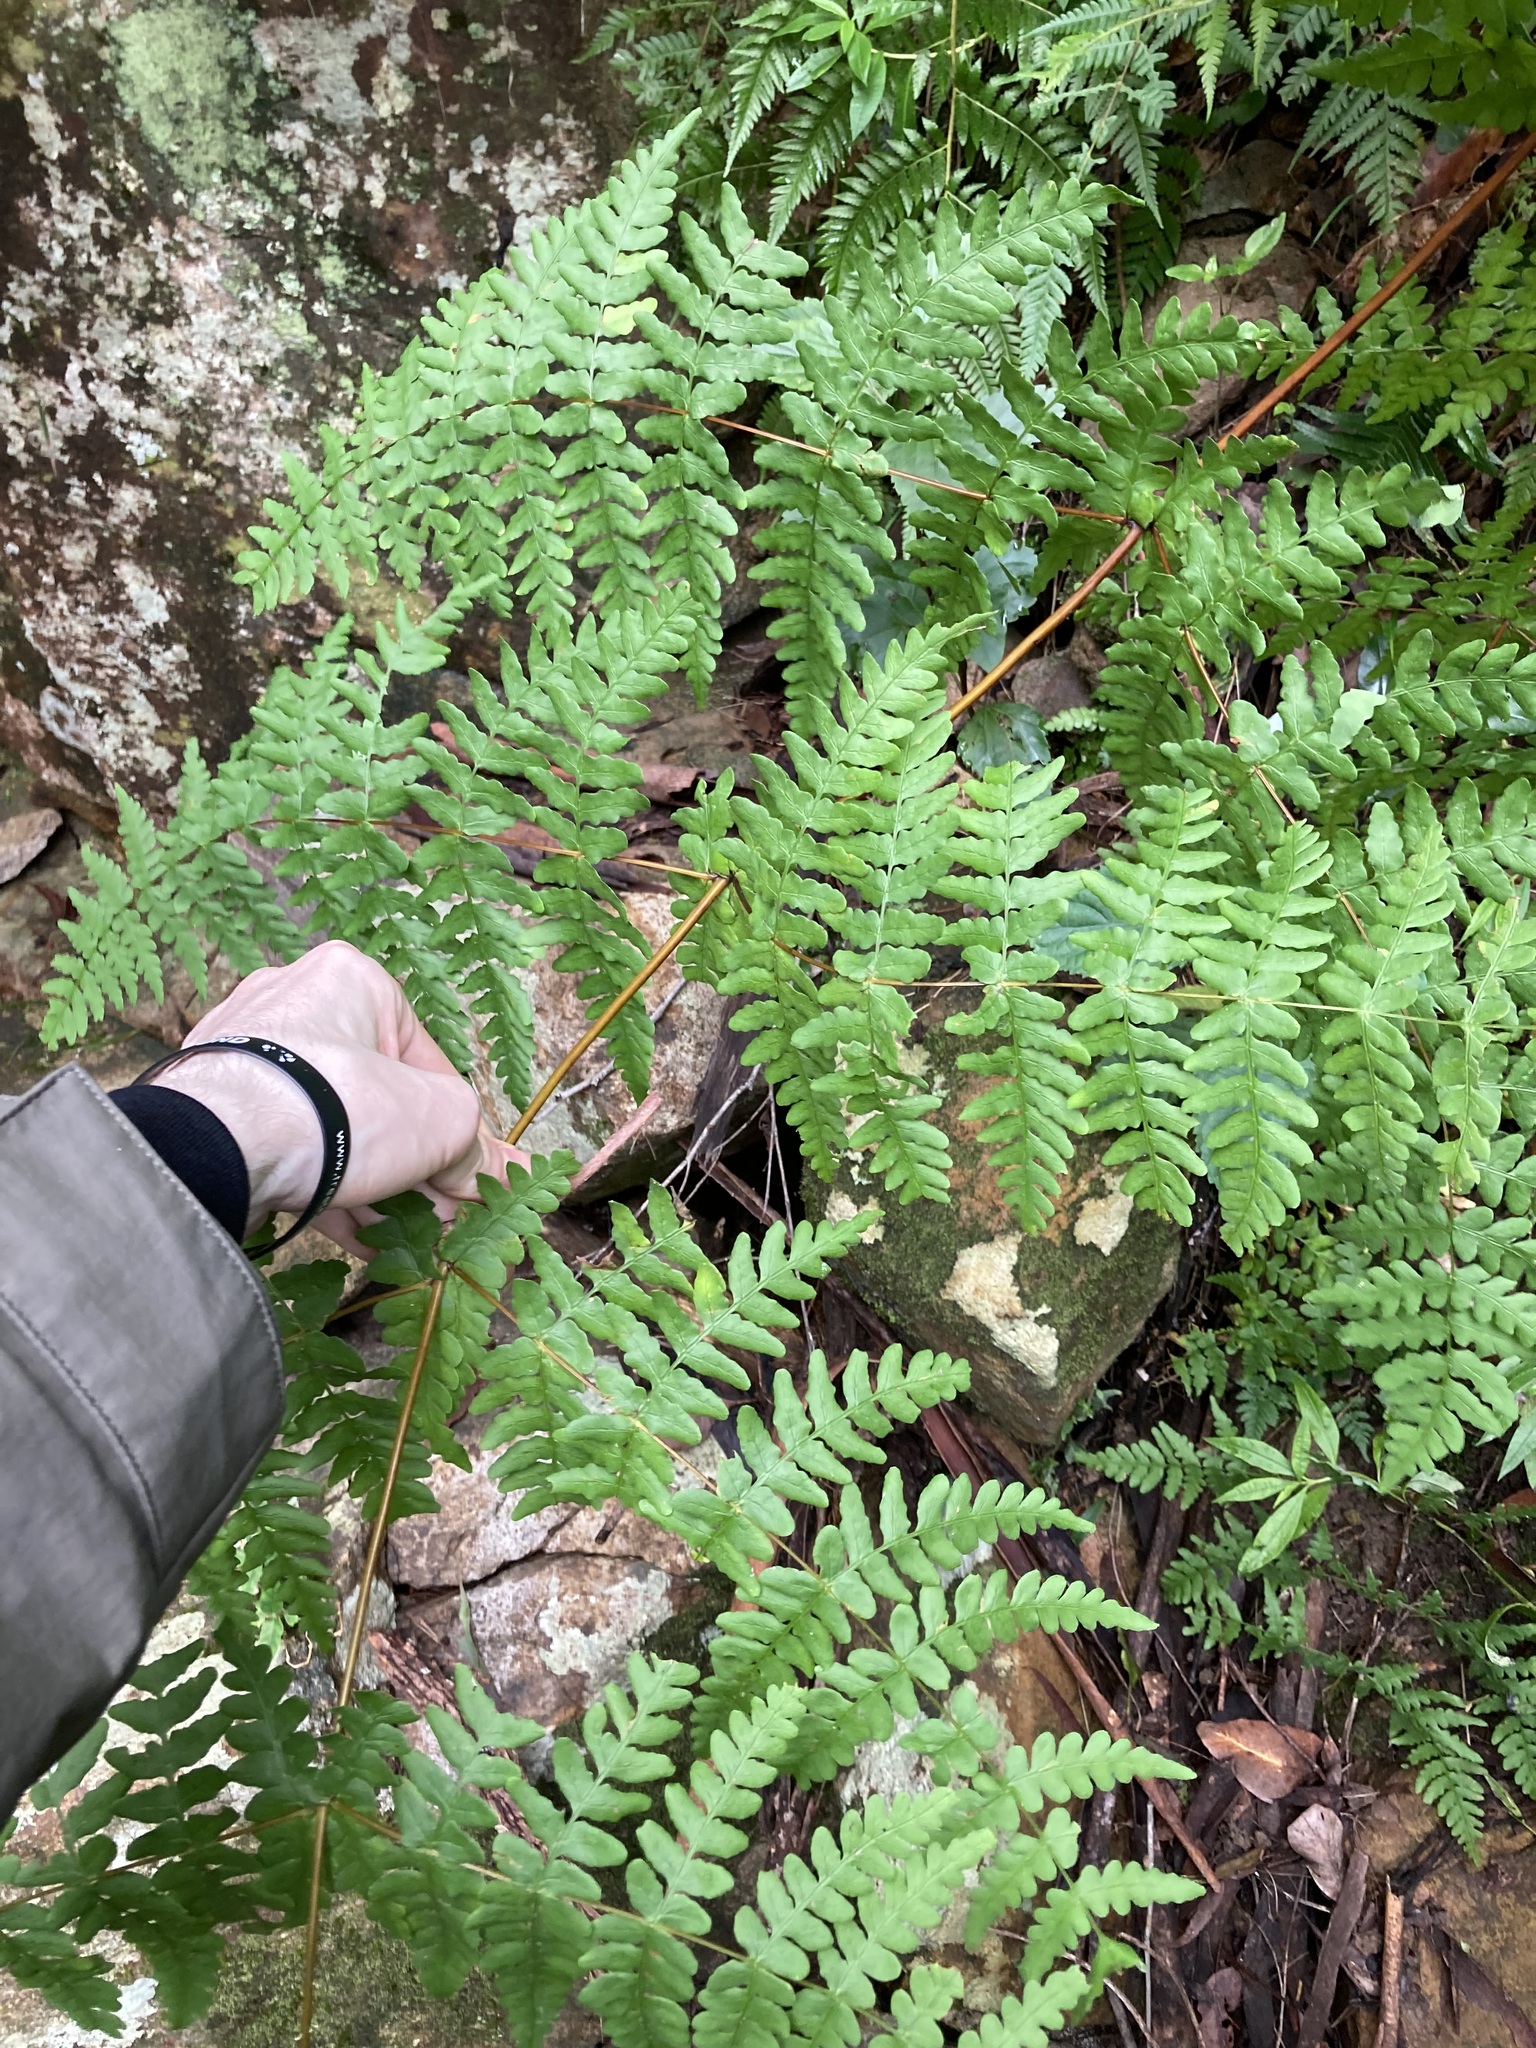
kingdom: Plantae
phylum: Tracheophyta
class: Polypodiopsida
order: Polypodiales
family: Dennstaedtiaceae
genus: Histiopteris
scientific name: Histiopteris incisa
